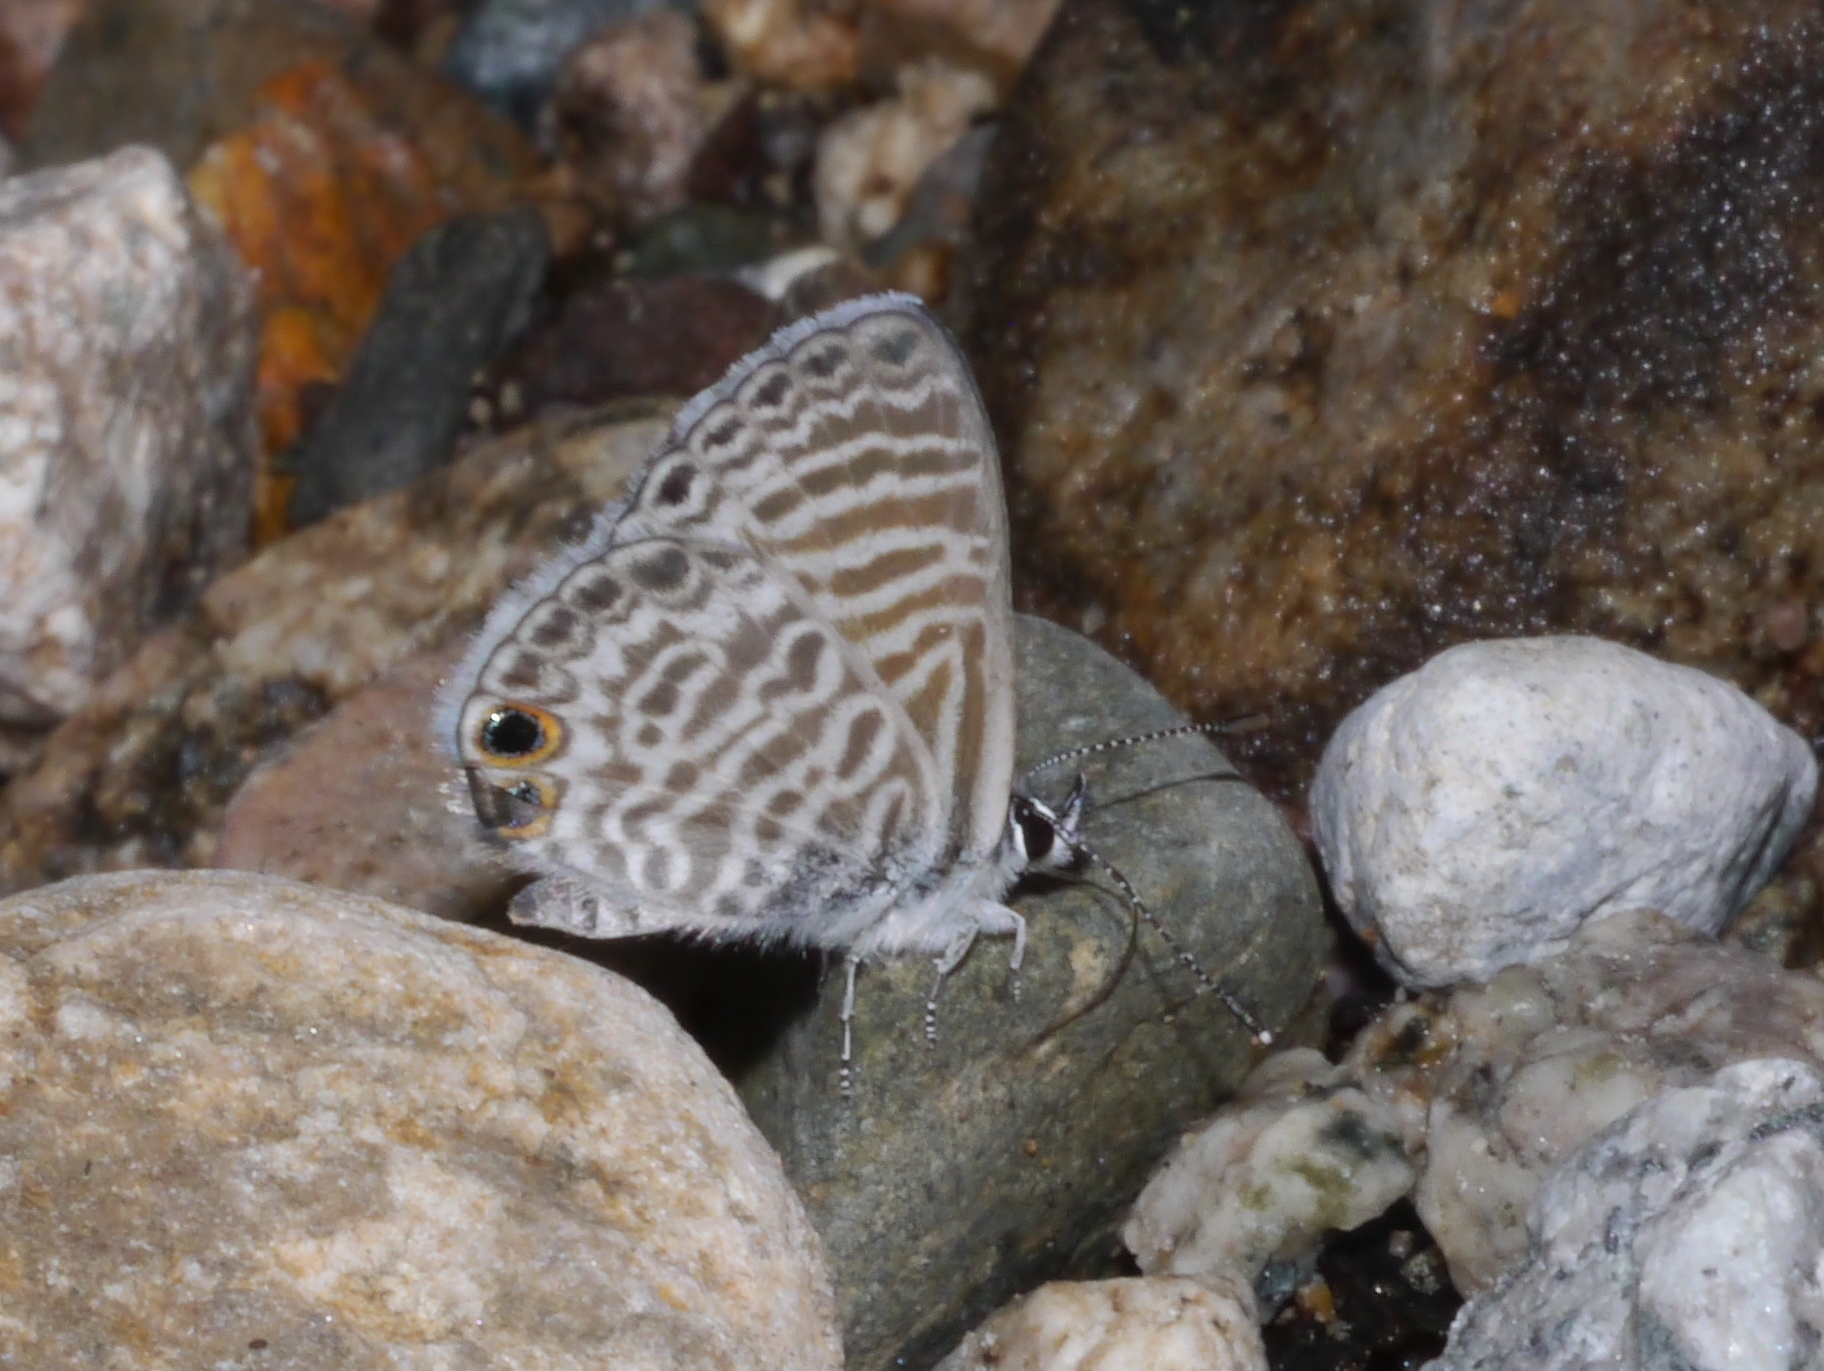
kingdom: Animalia
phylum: Arthropoda
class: Insecta
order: Lepidoptera
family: Lycaenidae
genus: Leptotes
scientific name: Leptotes marina
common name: Marine blue
